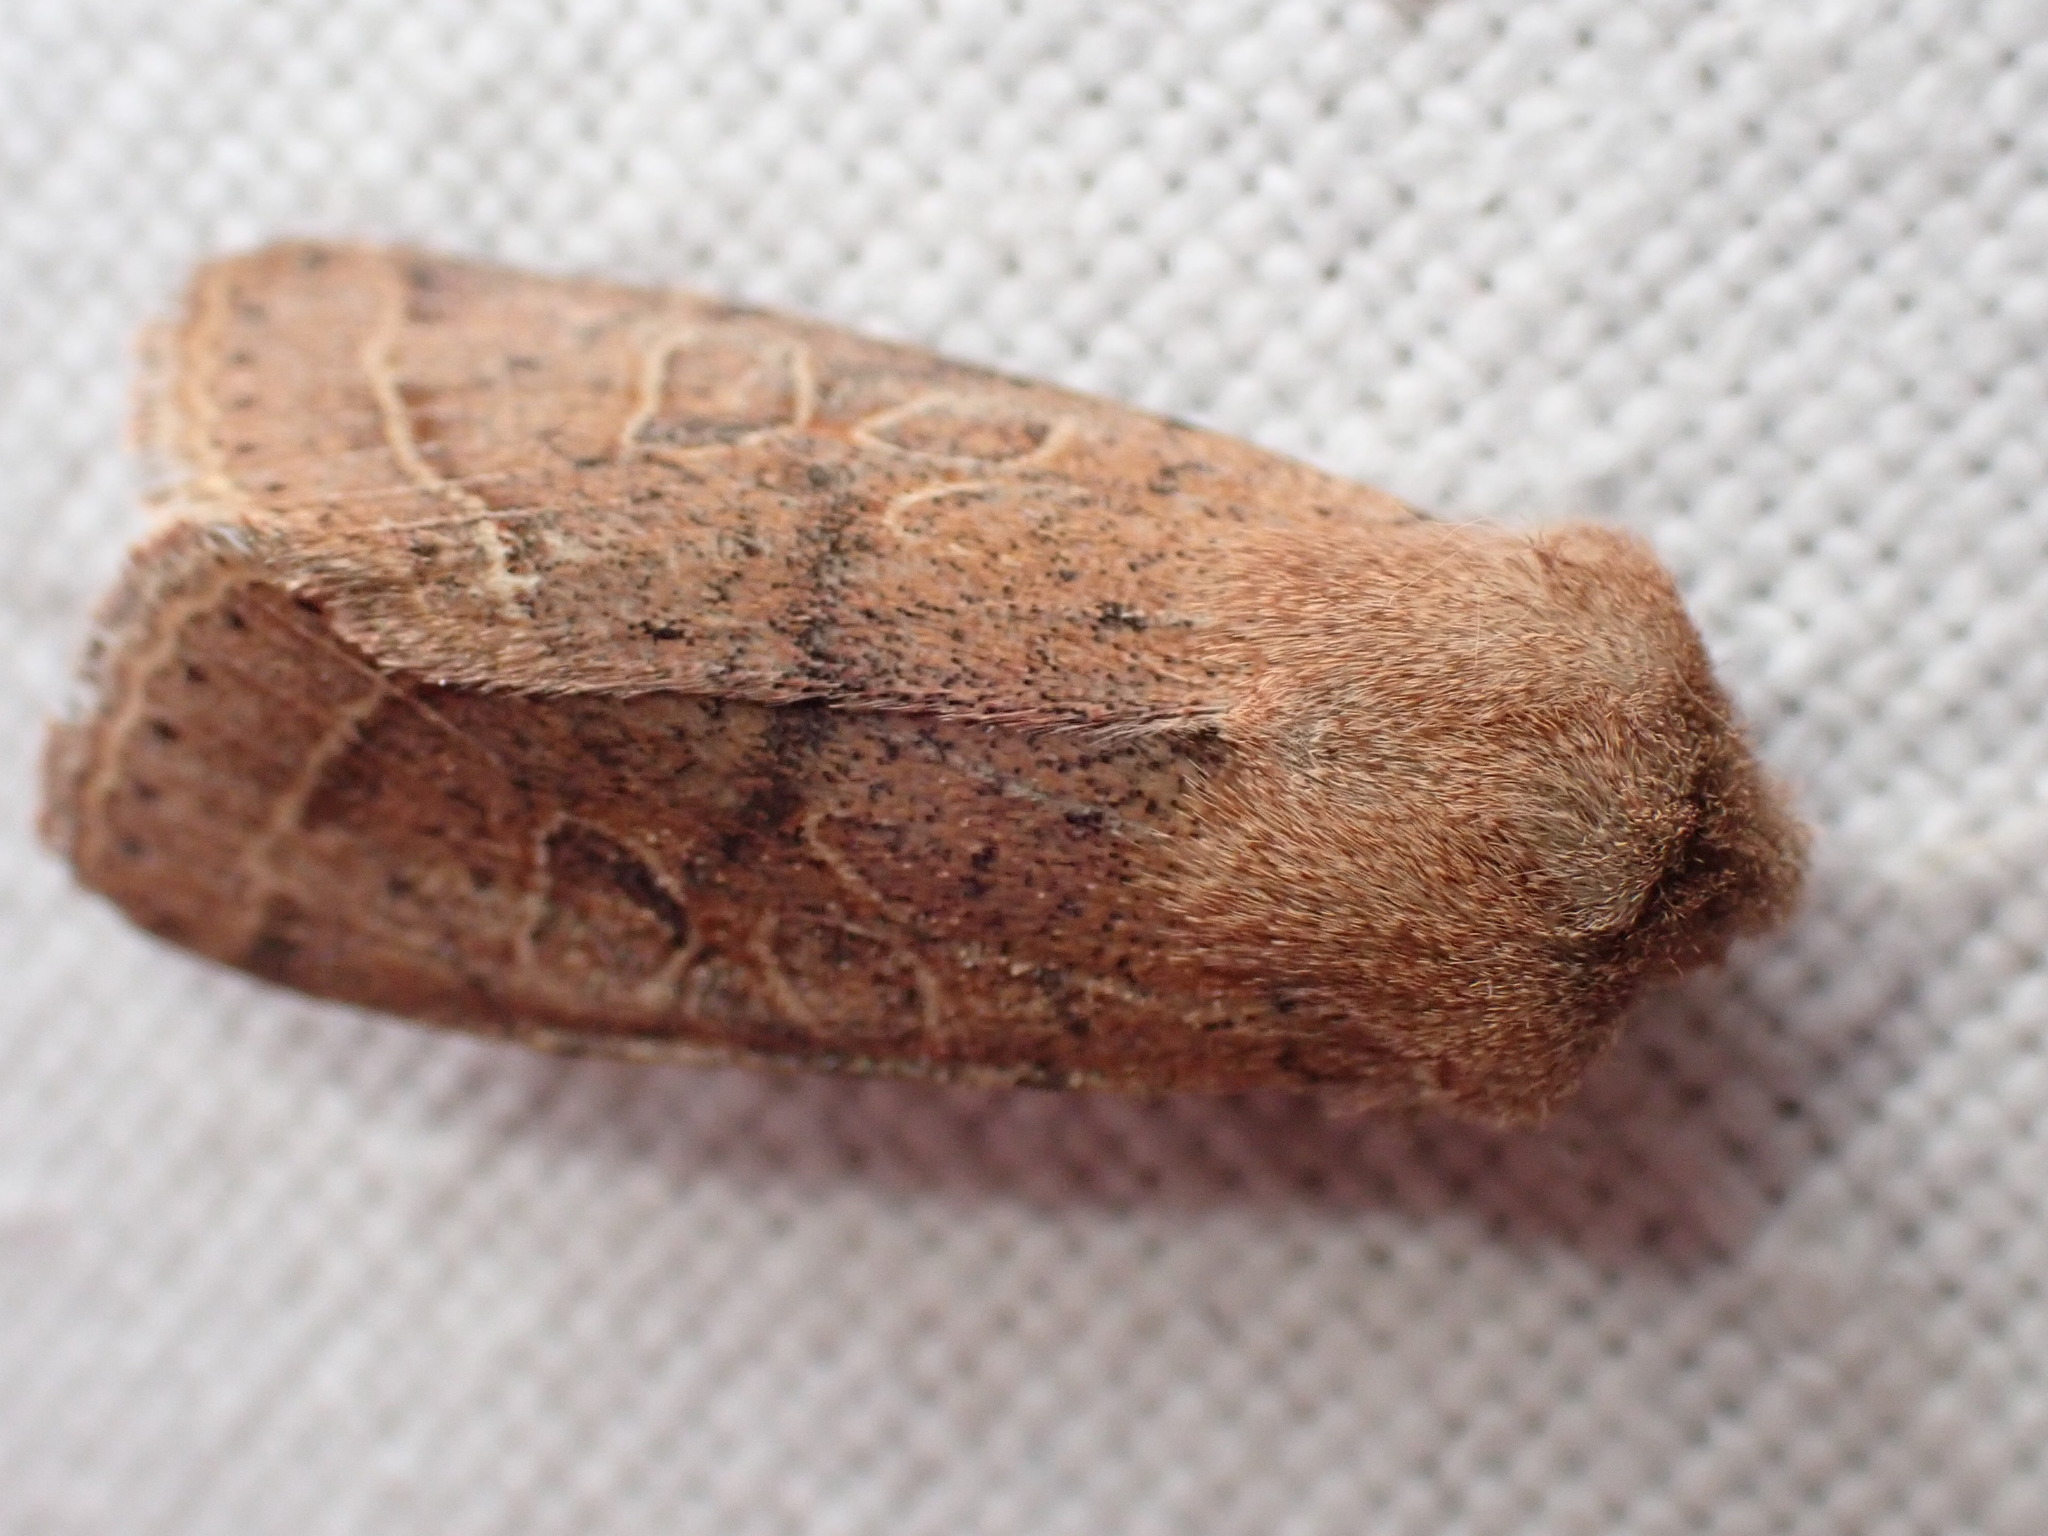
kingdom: Animalia
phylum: Arthropoda
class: Insecta
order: Lepidoptera
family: Noctuidae
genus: Orthosia
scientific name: Orthosia cerasi
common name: Common quaker
